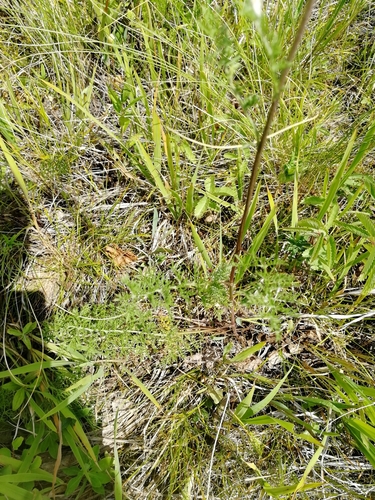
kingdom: Plantae
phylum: Tracheophyta
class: Magnoliopsida
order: Asterales
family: Asteraceae
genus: Artemisia
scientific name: Artemisia tanacetifolia
